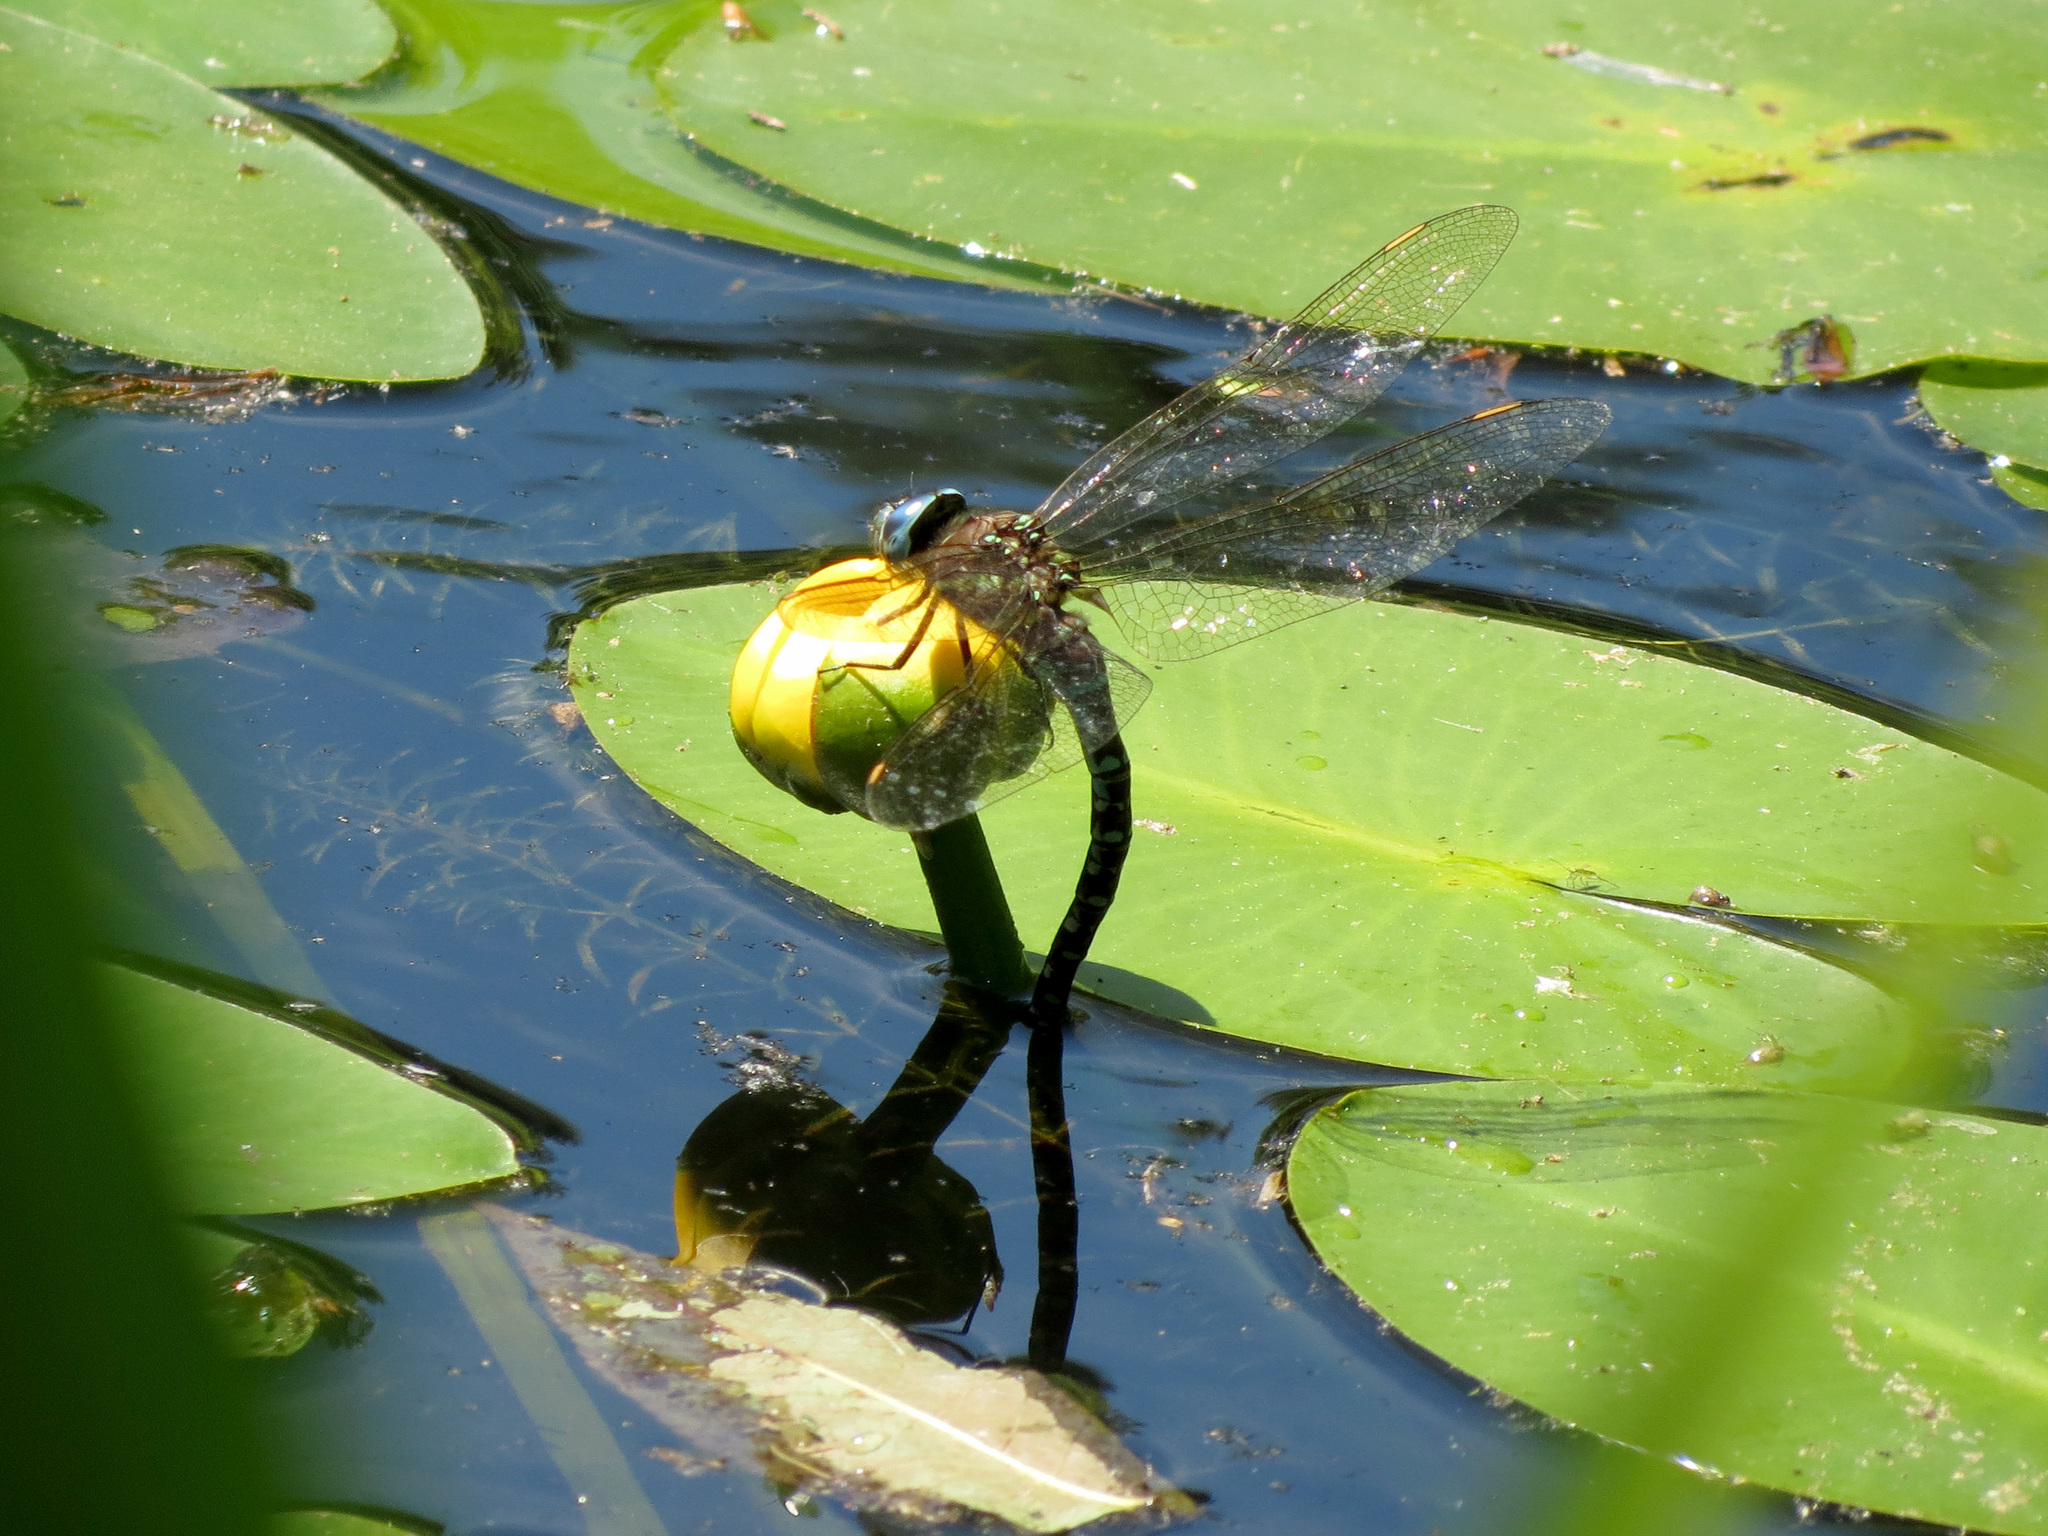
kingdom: Animalia
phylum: Arthropoda
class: Insecta
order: Odonata
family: Aeshnidae
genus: Rhionaeschna
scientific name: Rhionaeschna mutata
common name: Spatterdock darner
